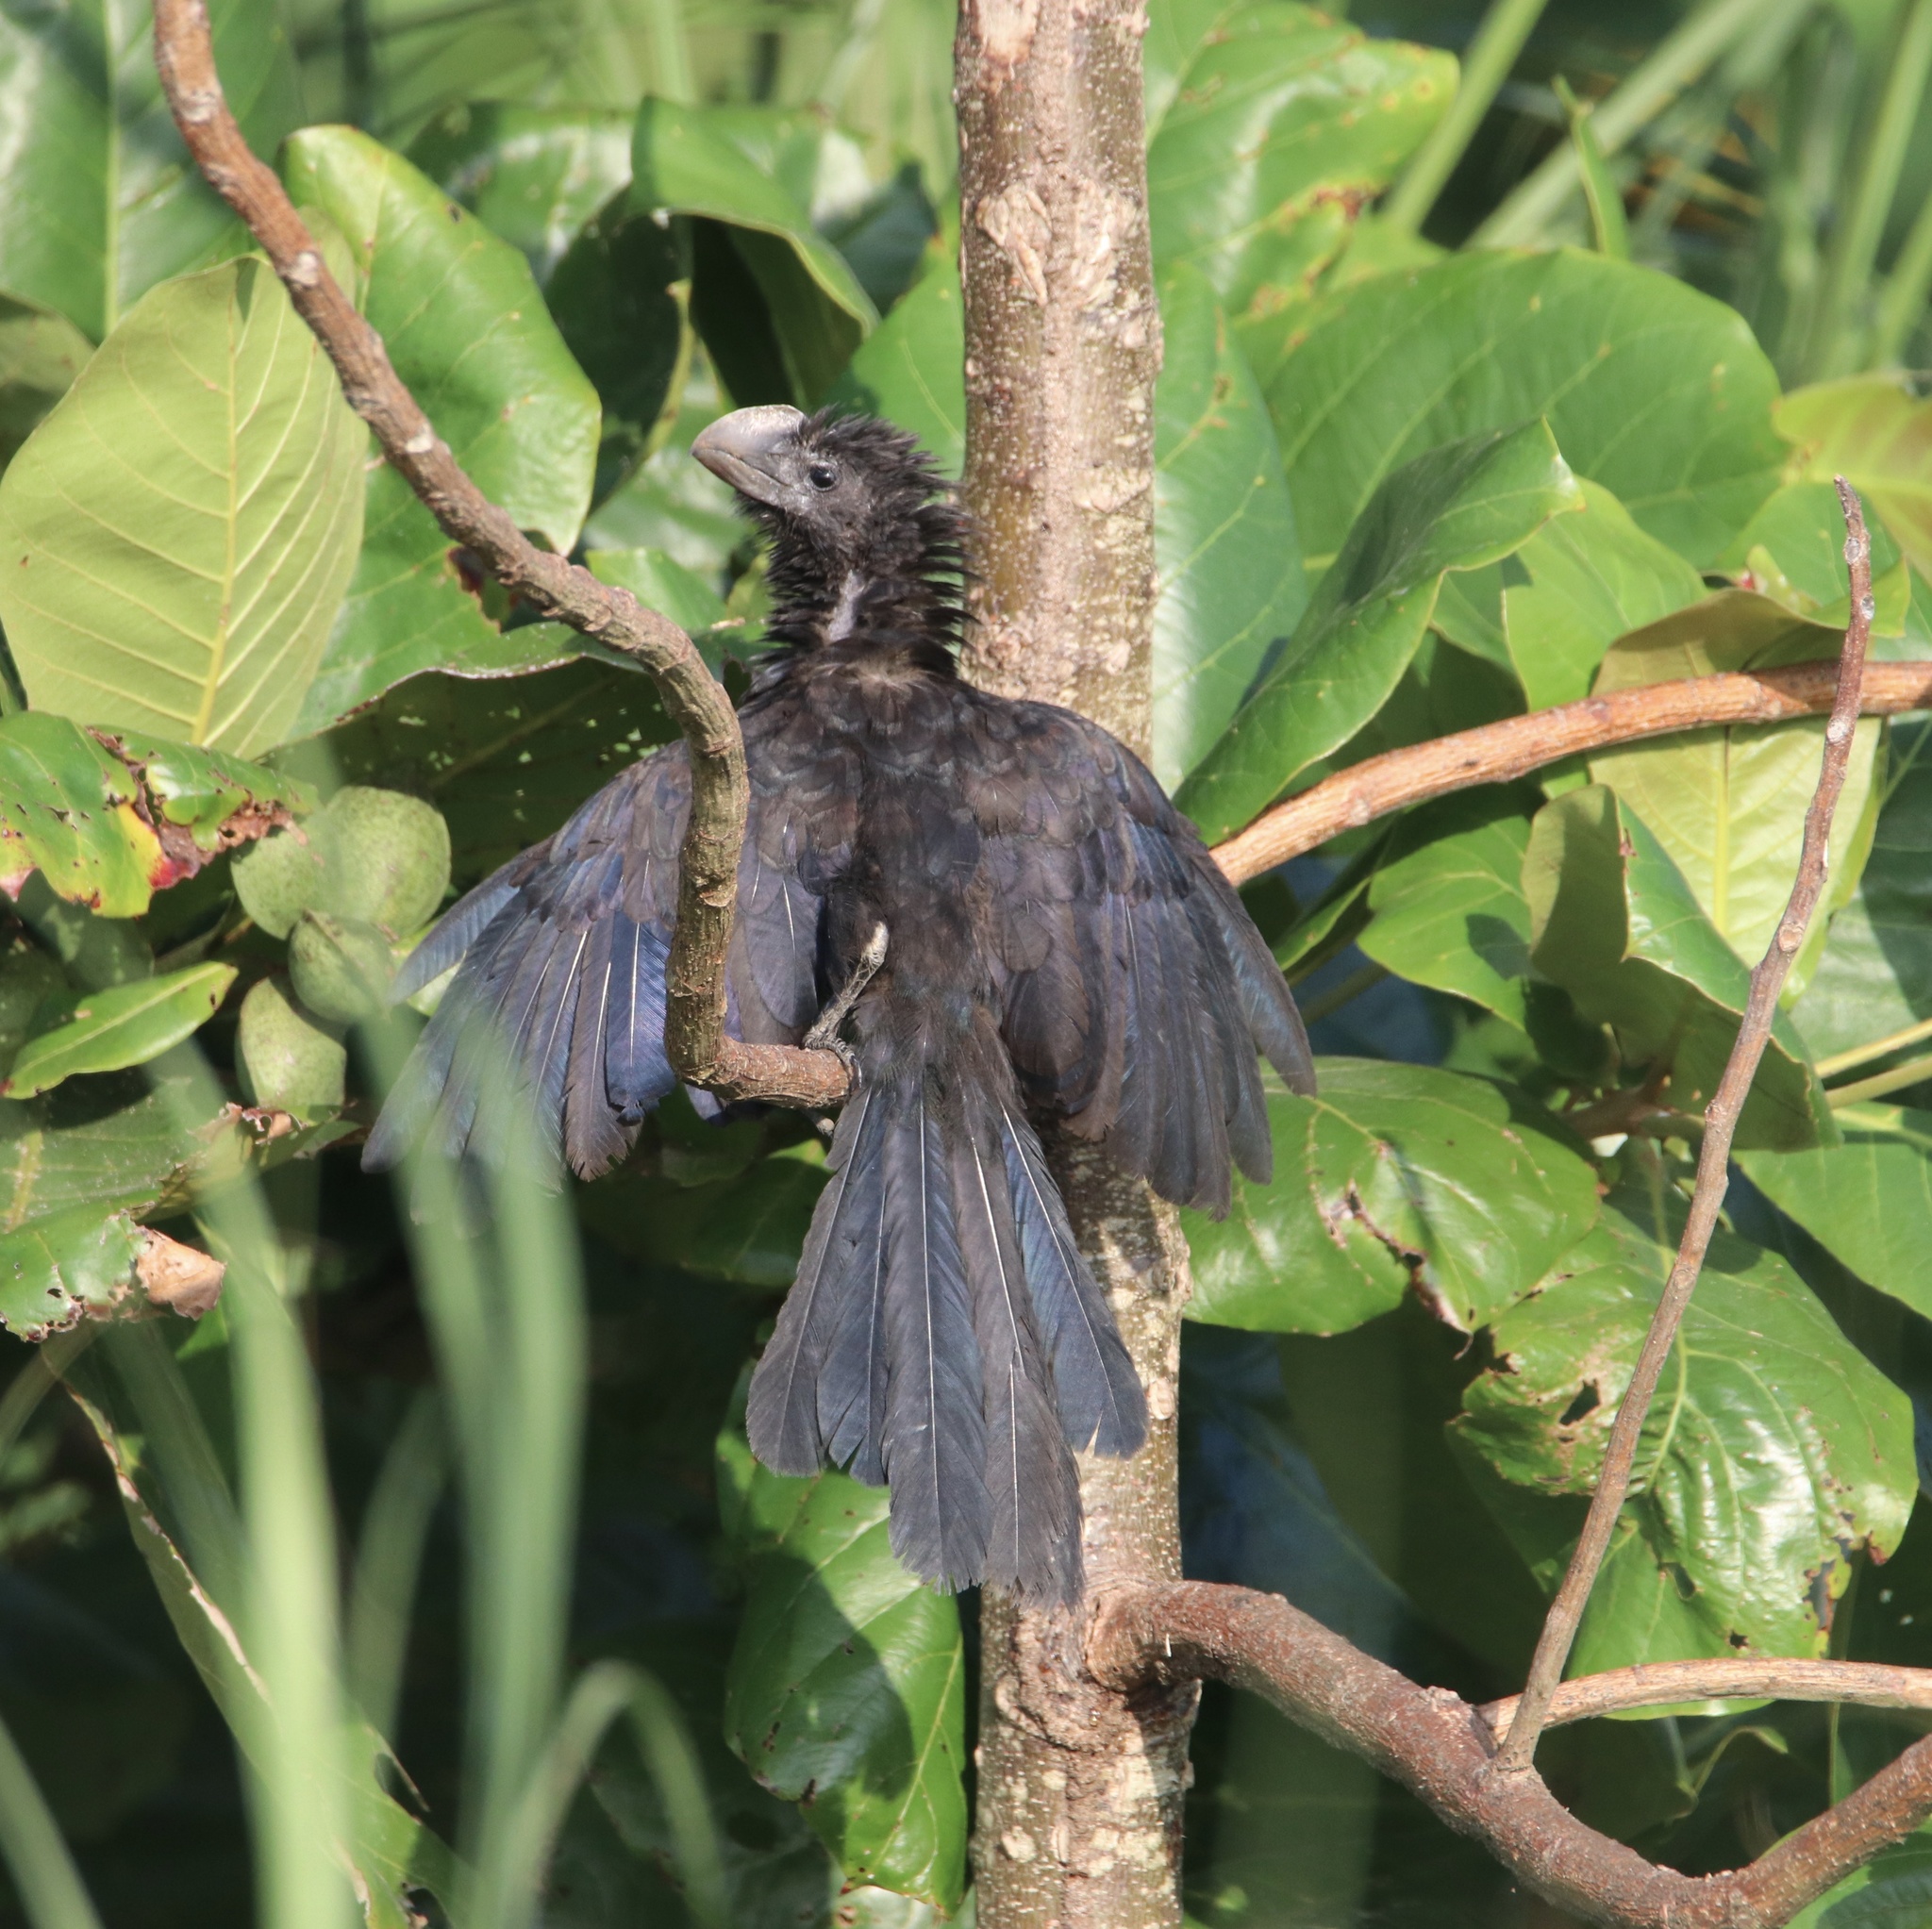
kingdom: Animalia
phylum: Chordata
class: Aves
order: Cuculiformes
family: Cuculidae
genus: Crotophaga
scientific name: Crotophaga ani
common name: Smooth-billed ani
